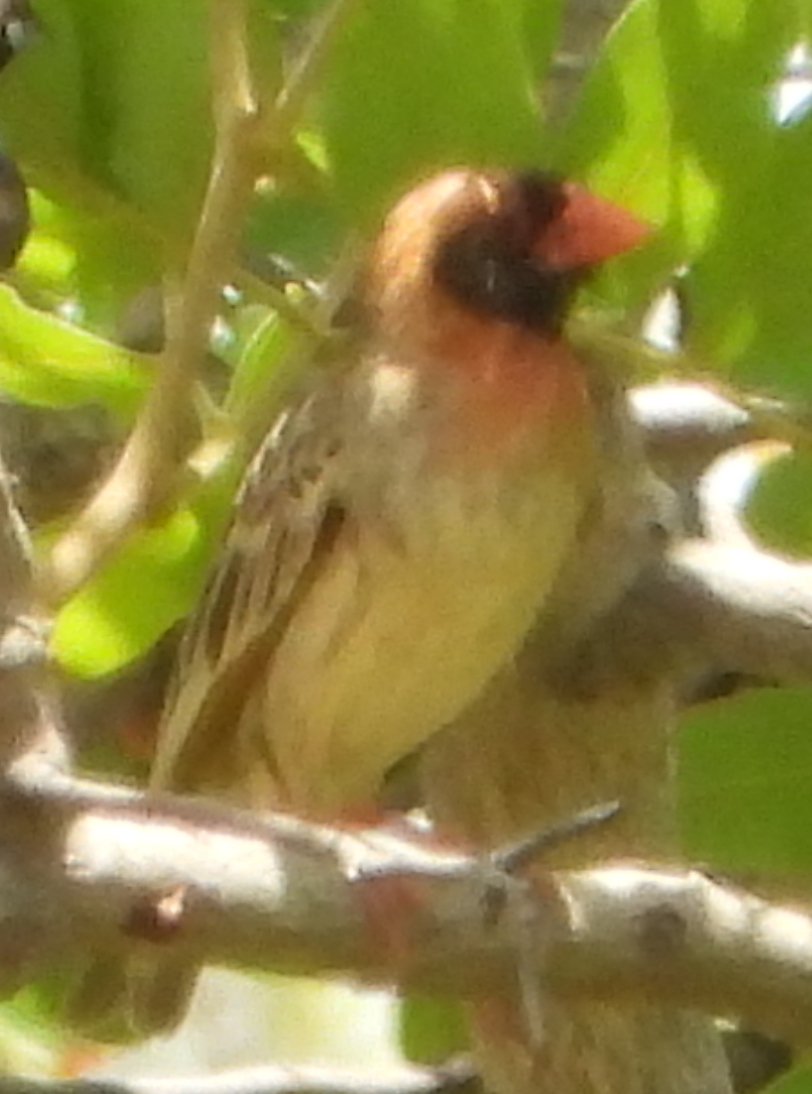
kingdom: Animalia
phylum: Chordata
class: Aves
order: Passeriformes
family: Ploceidae
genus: Quelea
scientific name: Quelea quelea
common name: Red-billed quelea
